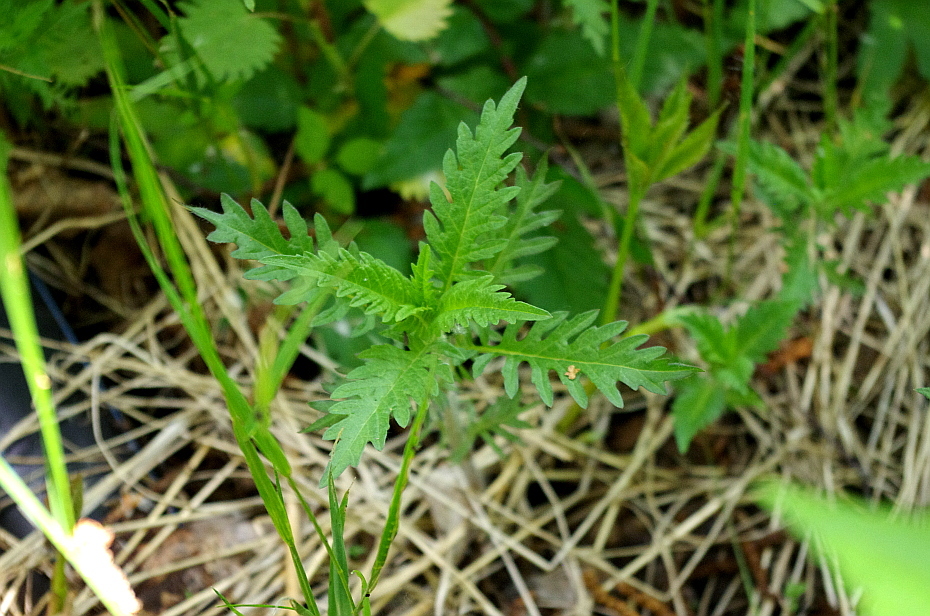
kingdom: Plantae
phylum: Tracheophyta
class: Magnoliopsida
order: Lamiales
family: Lamiaceae
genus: Lycopus
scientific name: Lycopus europaeus
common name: European bugleweed
